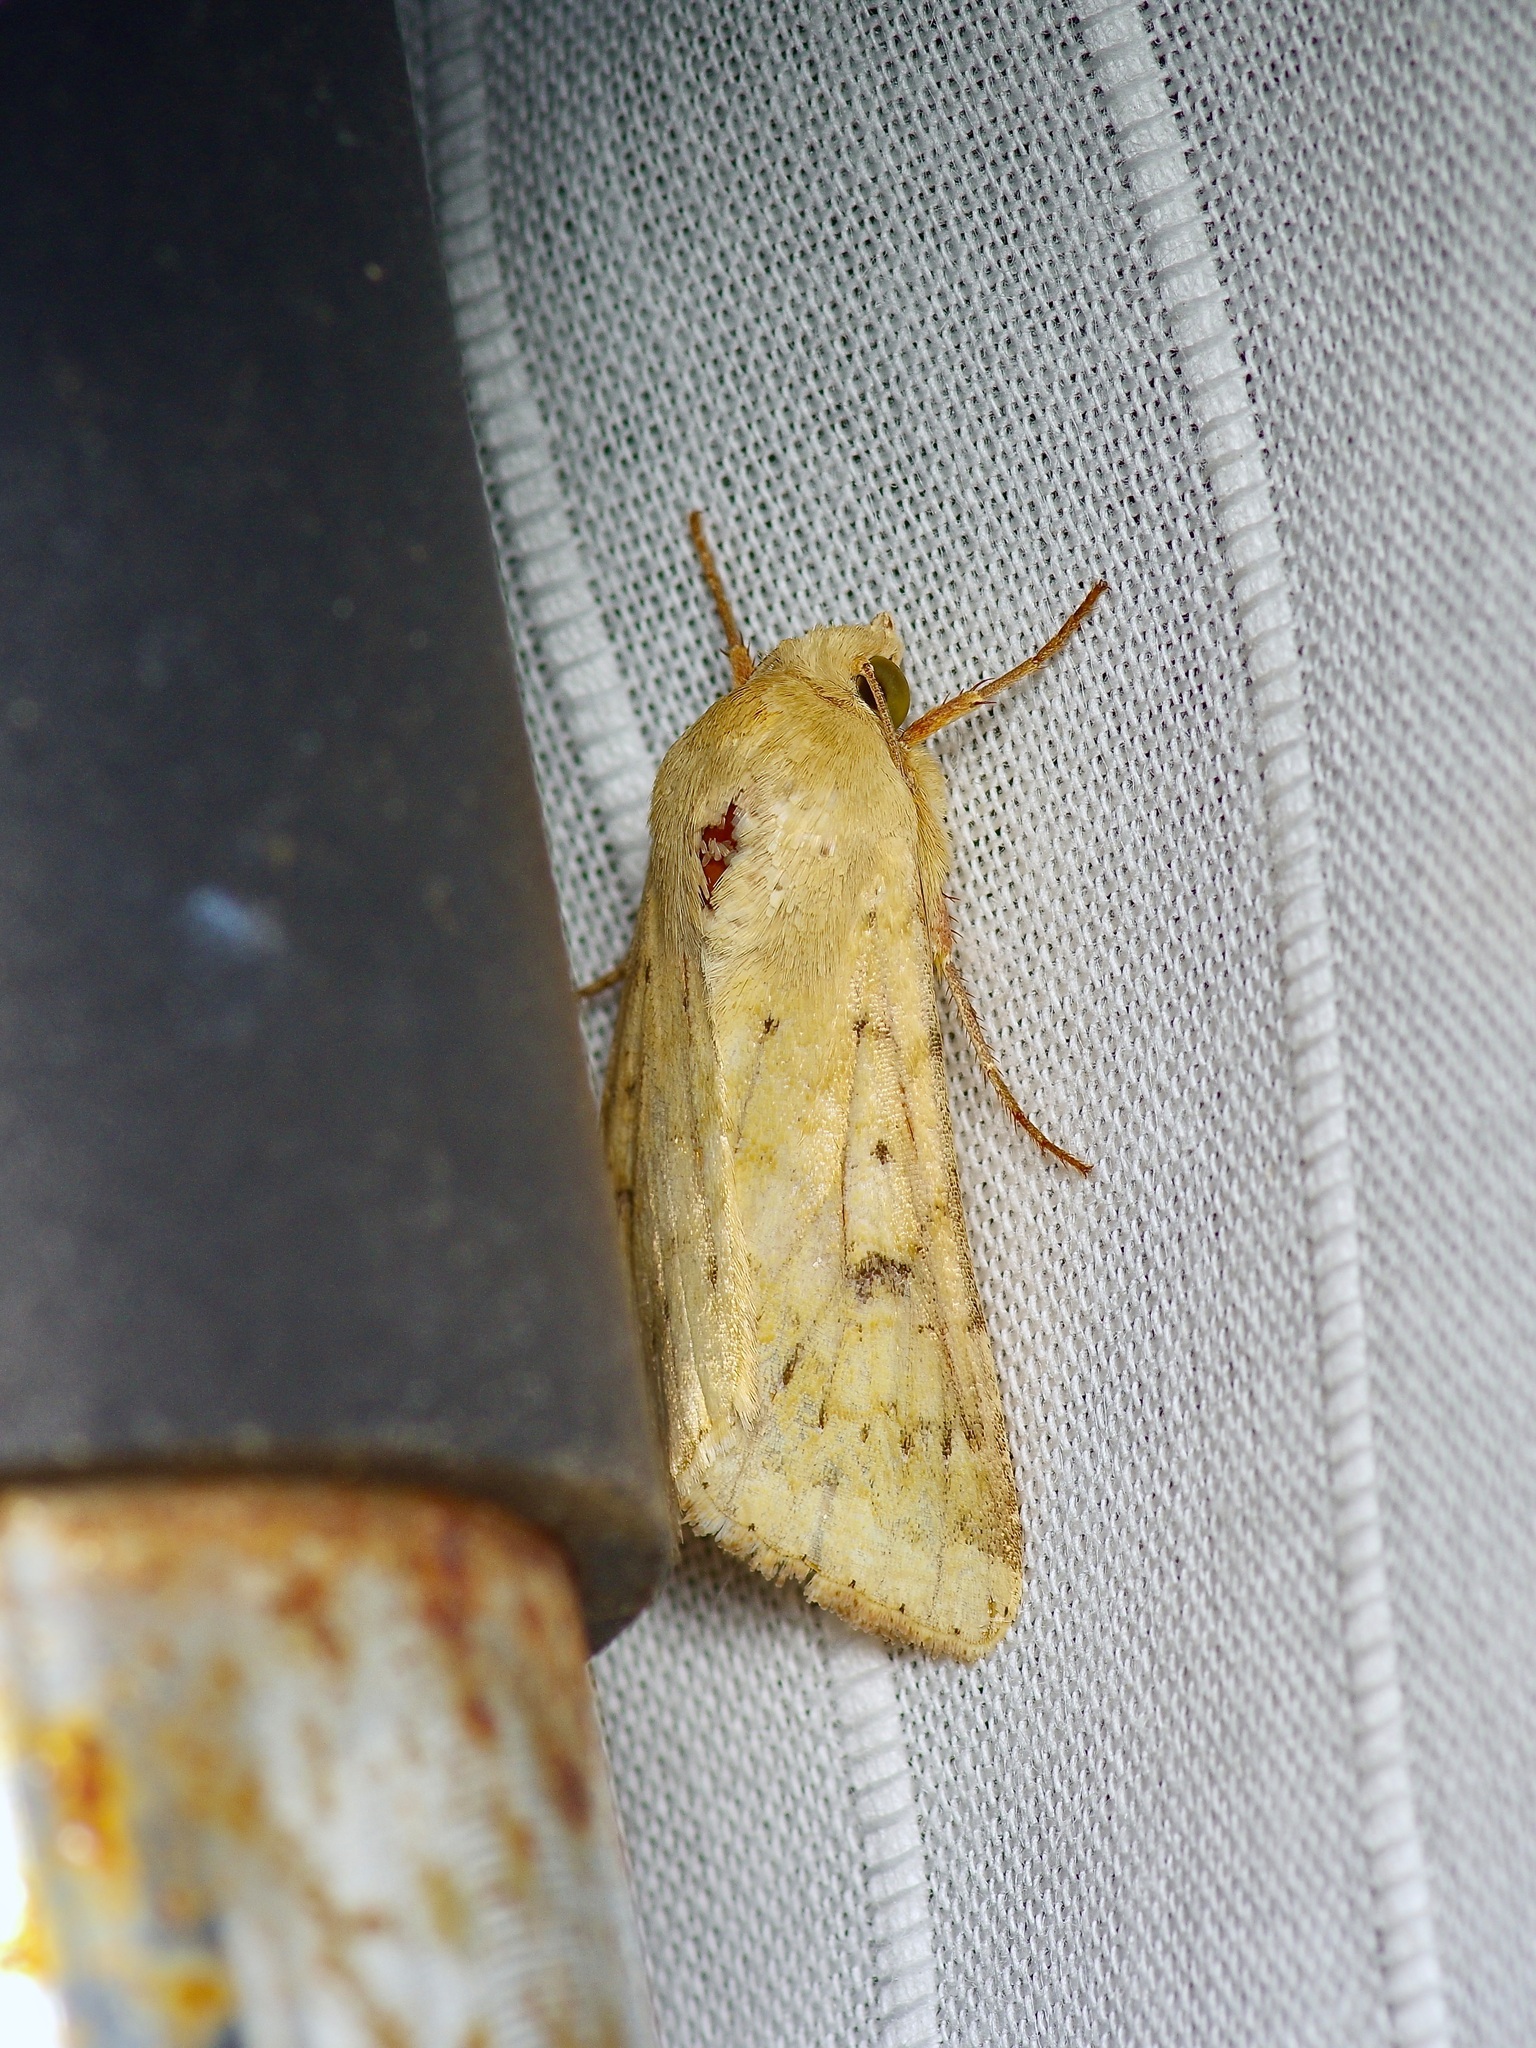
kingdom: Animalia
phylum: Arthropoda
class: Insecta
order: Lepidoptera
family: Noctuidae
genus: Helicoverpa
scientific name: Helicoverpa zea
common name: Bollworm
